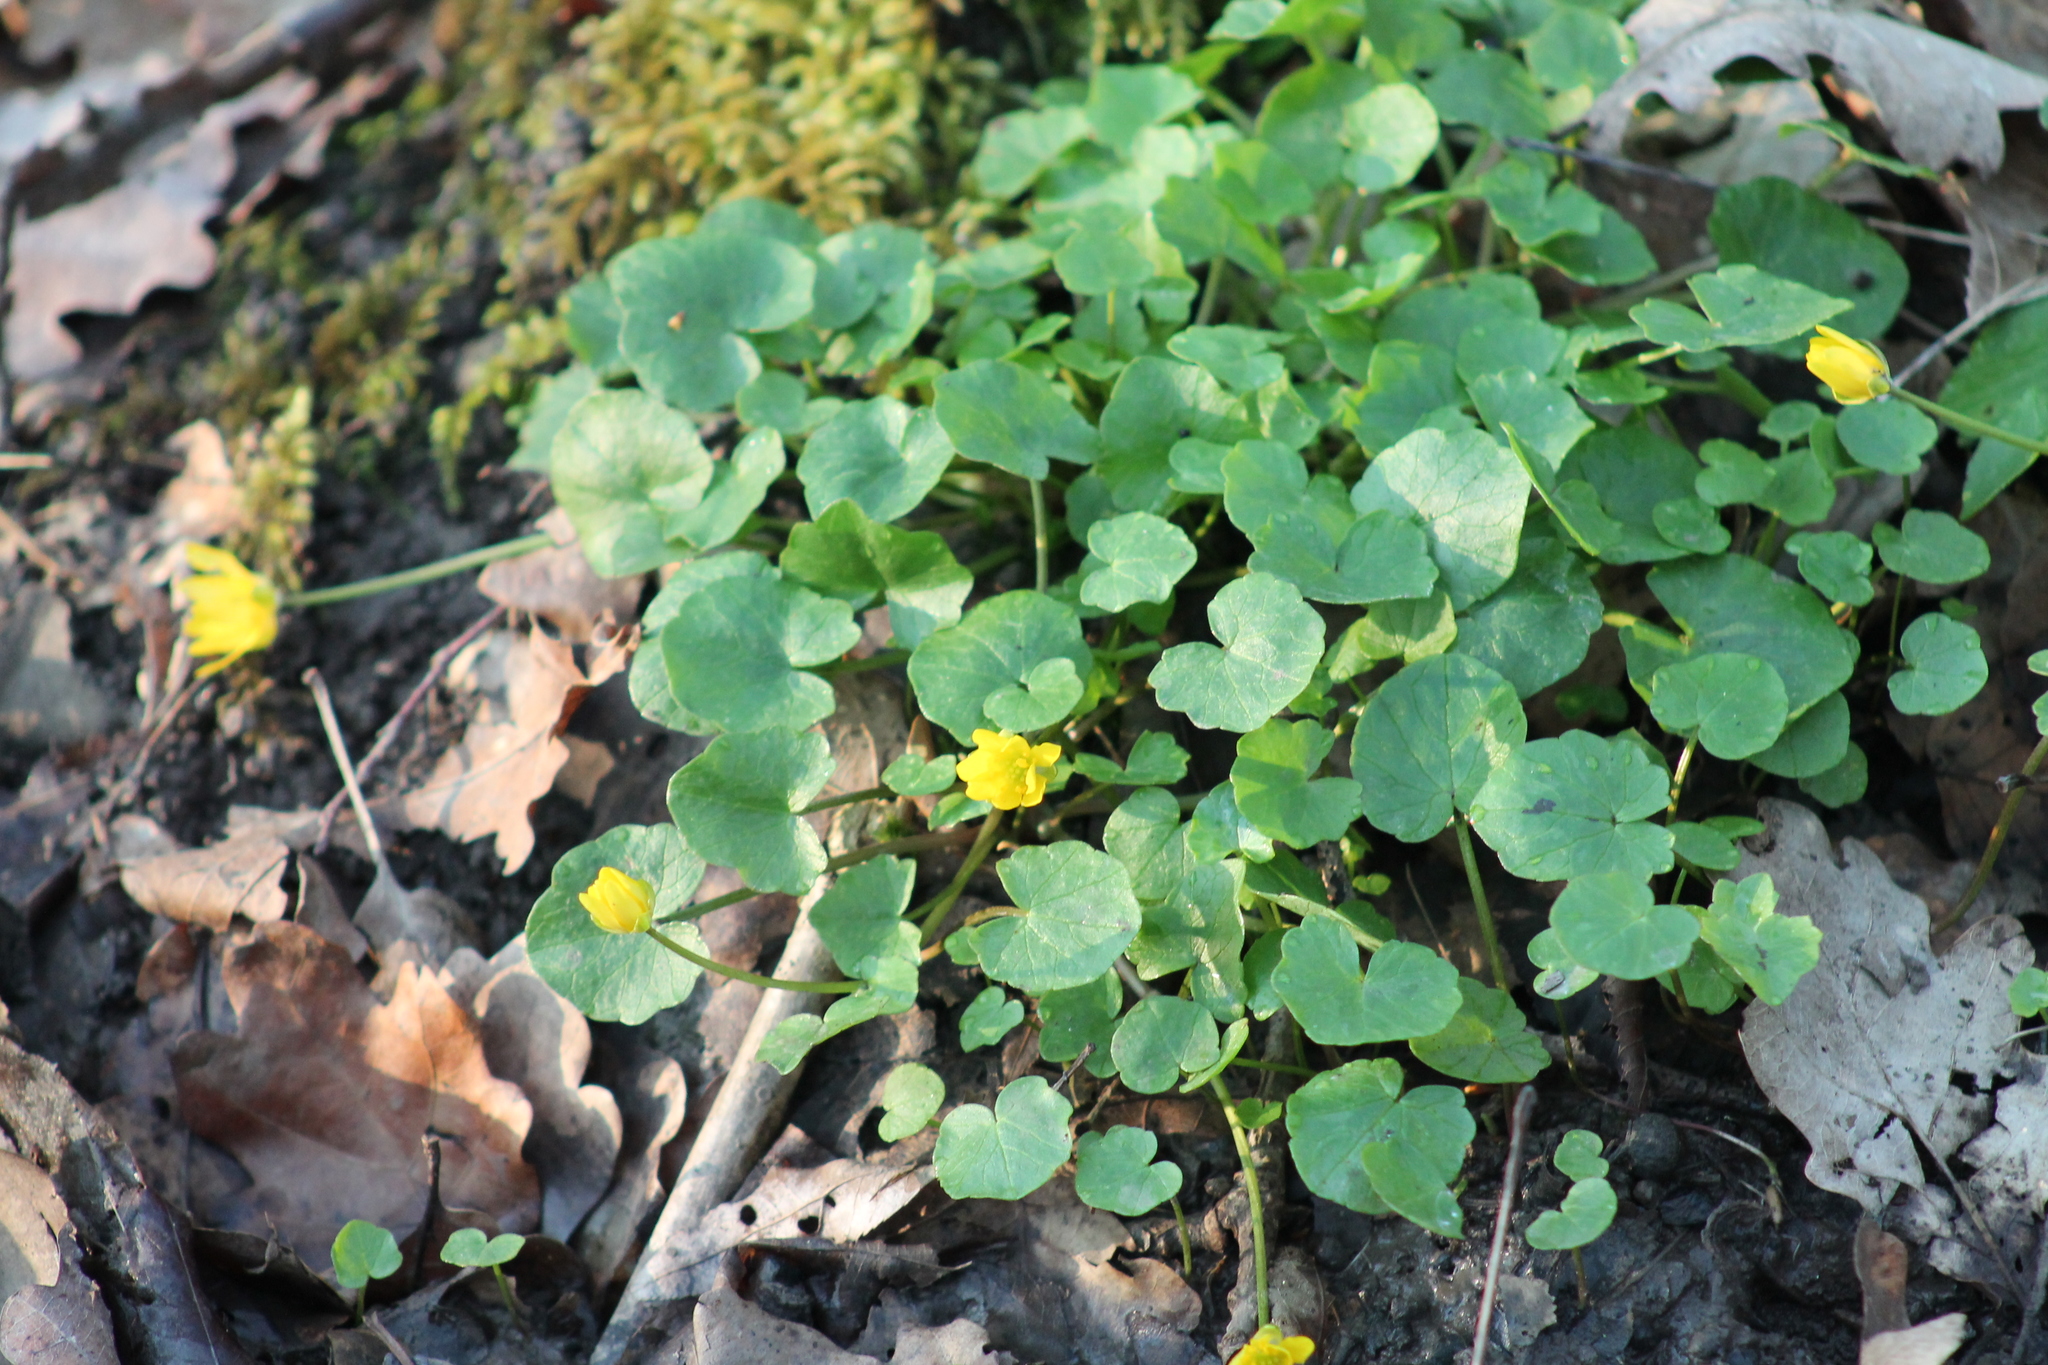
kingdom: Plantae
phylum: Tracheophyta
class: Magnoliopsida
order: Ranunculales
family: Ranunculaceae
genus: Ficaria
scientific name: Ficaria verna
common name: Lesser celandine
